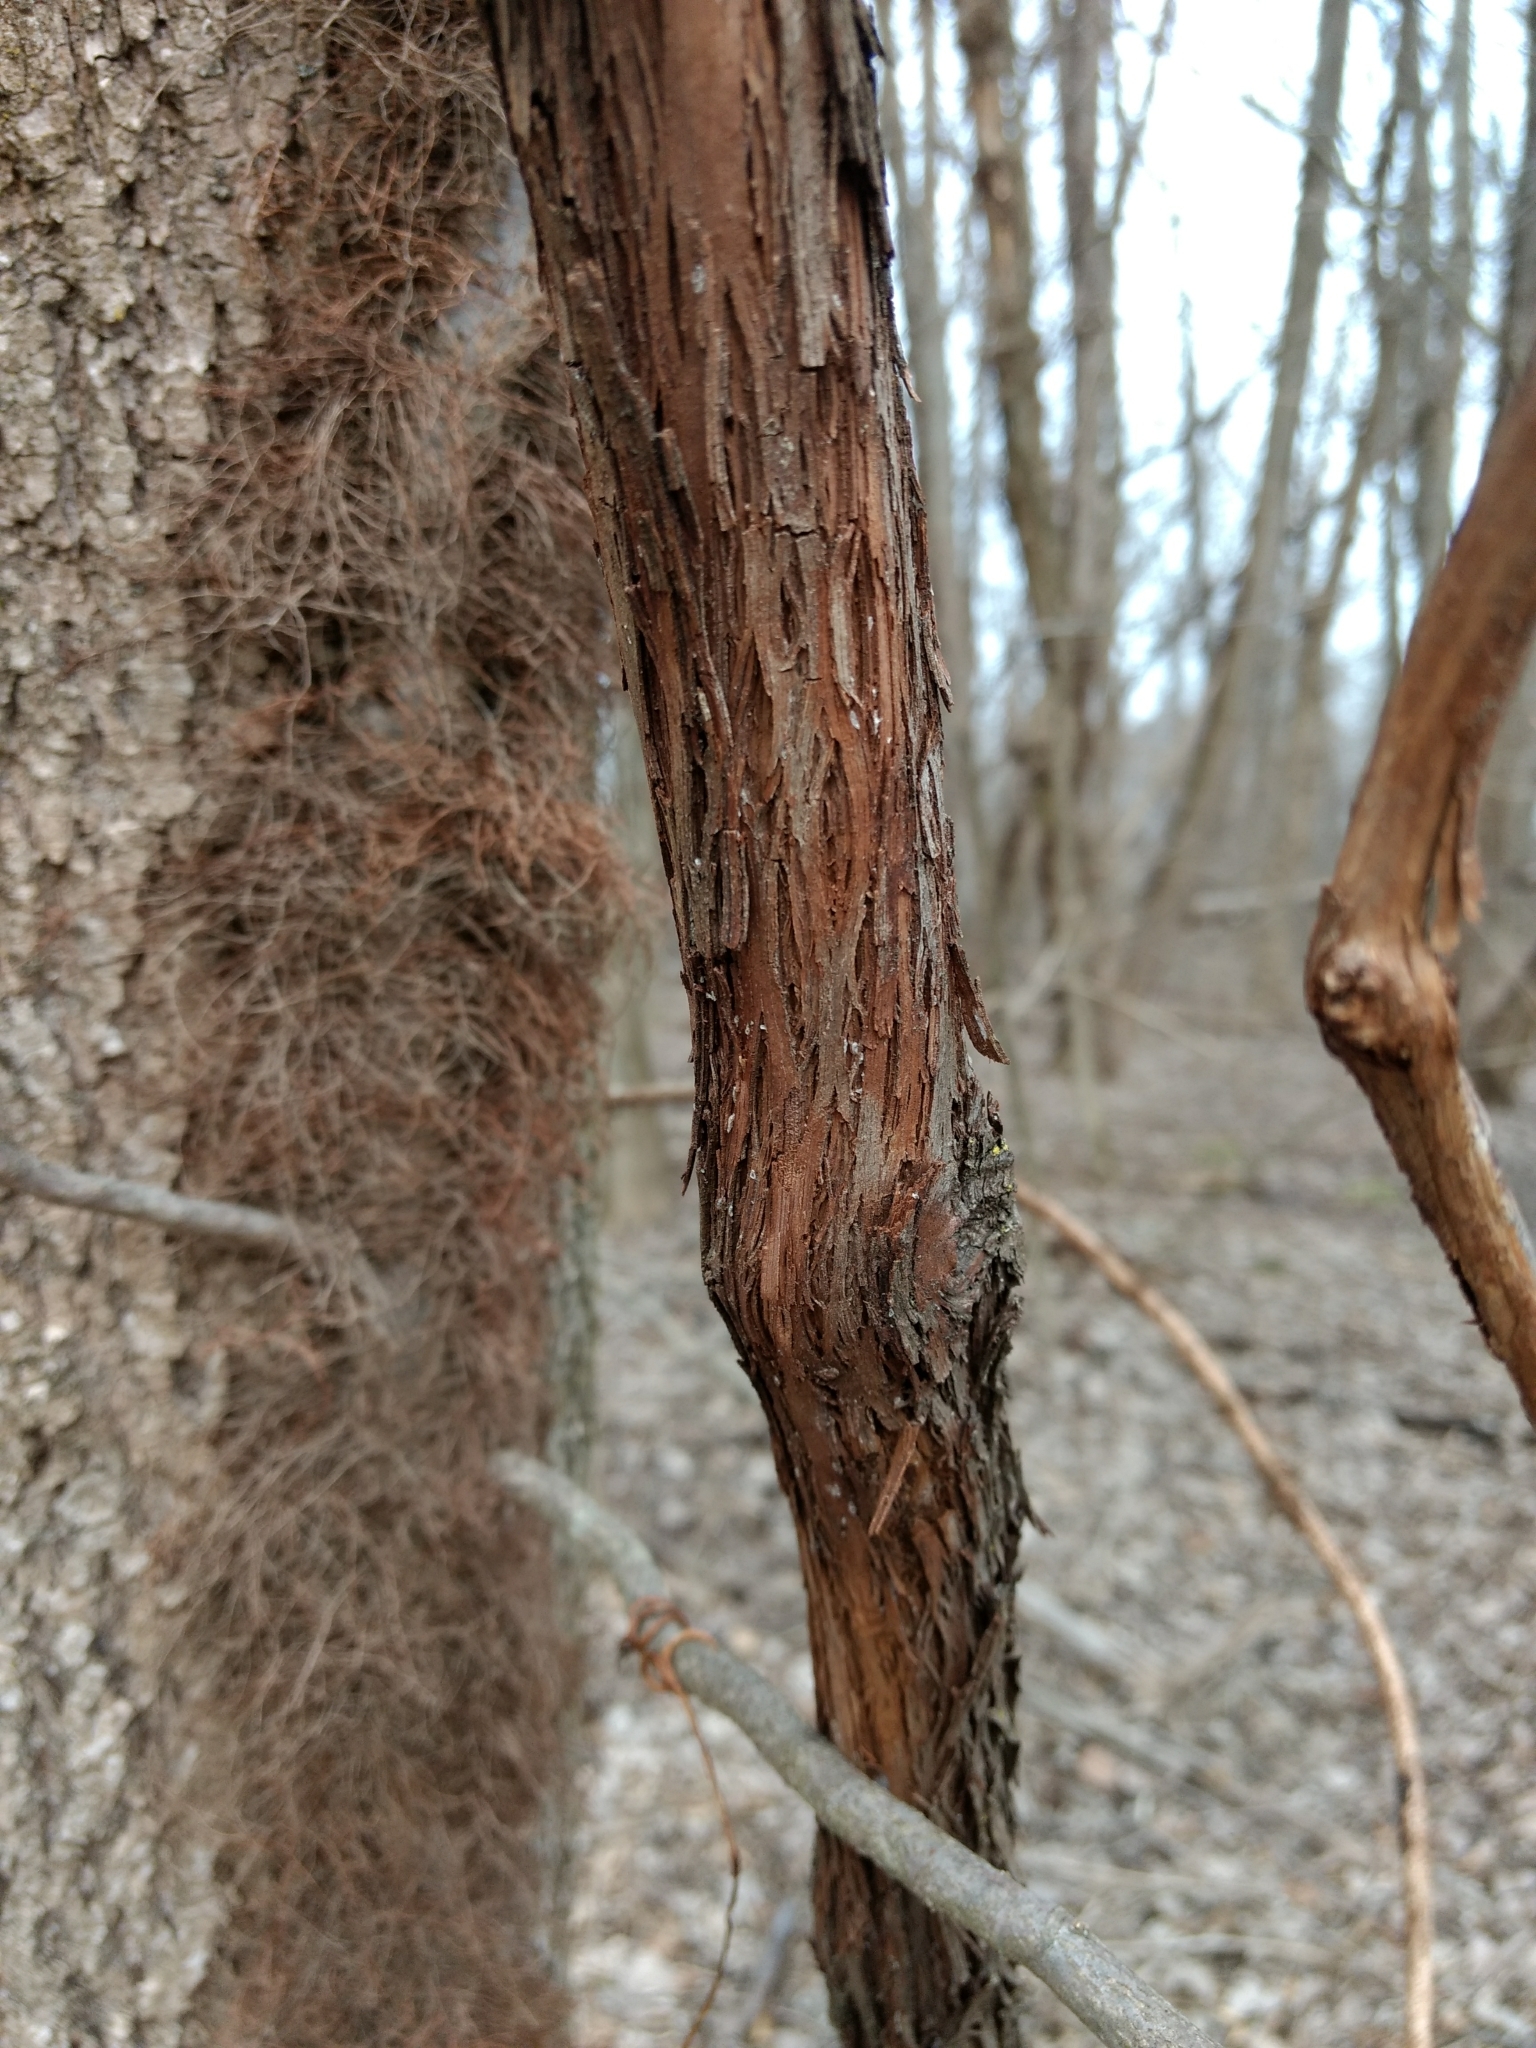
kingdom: Plantae
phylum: Tracheophyta
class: Magnoliopsida
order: Vitales
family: Vitaceae
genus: Vitis
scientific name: Vitis
